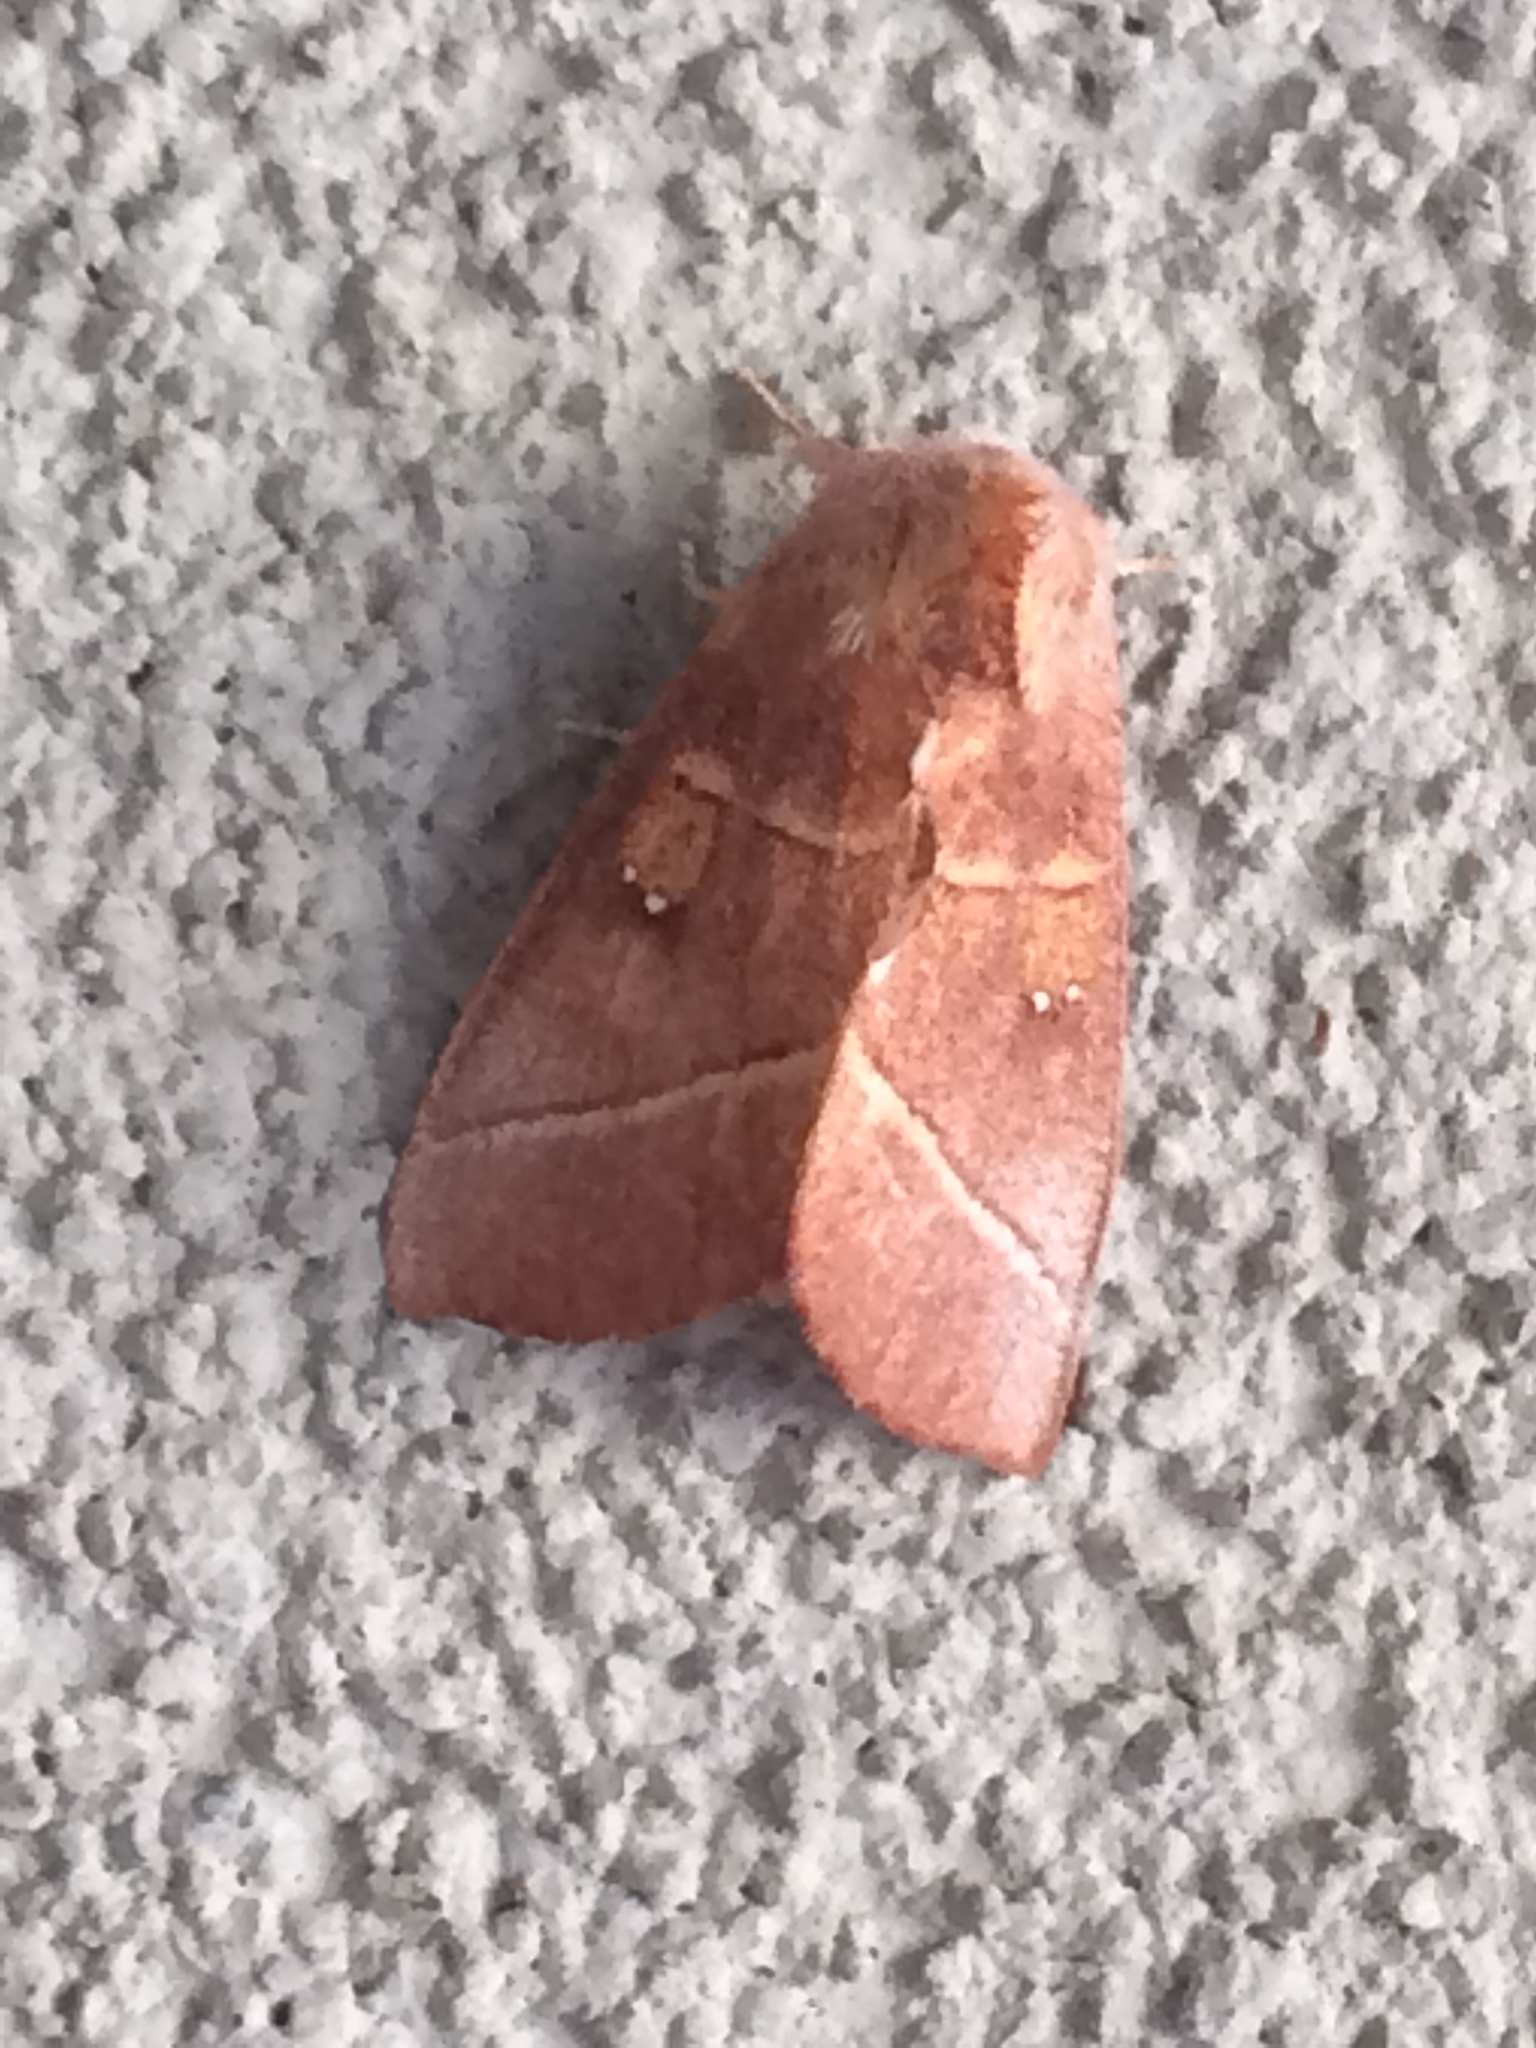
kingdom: Animalia
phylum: Arthropoda
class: Insecta
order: Lepidoptera
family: Notodontidae
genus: Nadata
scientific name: Nadata gibbosa
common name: White-dotted prominent
